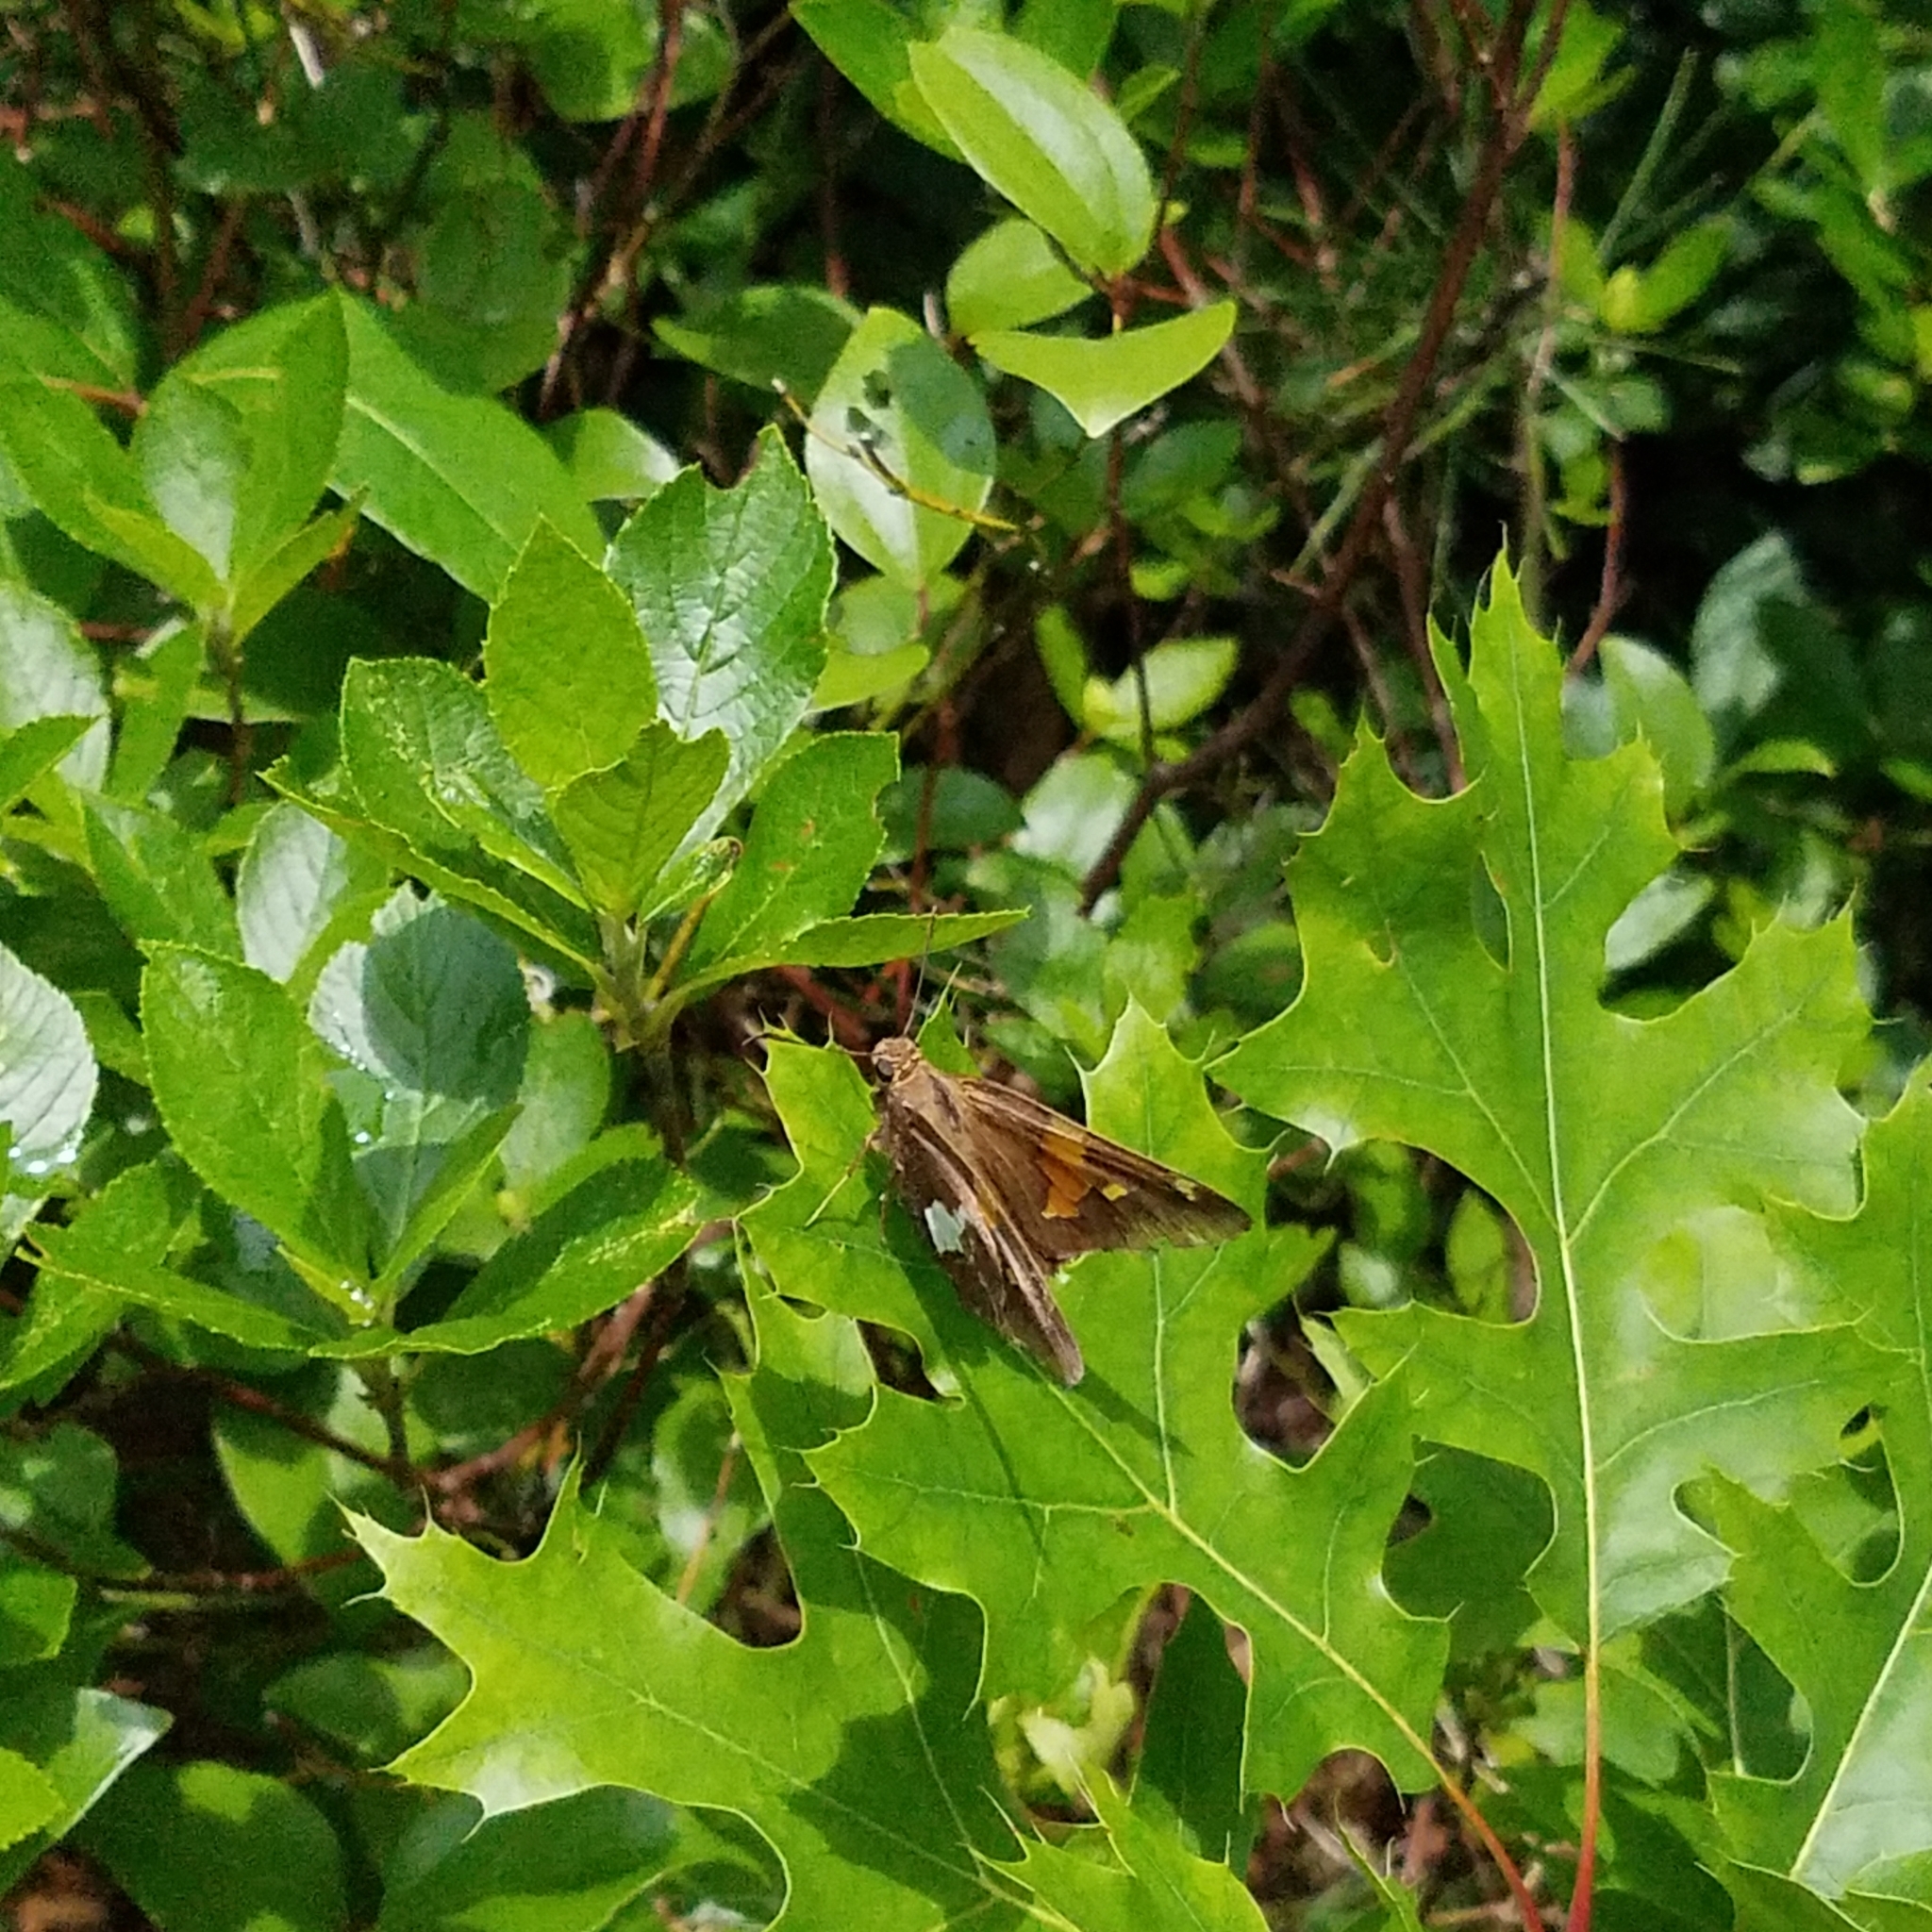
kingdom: Animalia
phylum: Arthropoda
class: Insecta
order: Lepidoptera
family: Hesperiidae
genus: Epargyreus
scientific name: Epargyreus clarus
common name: Silver-spotted skipper
